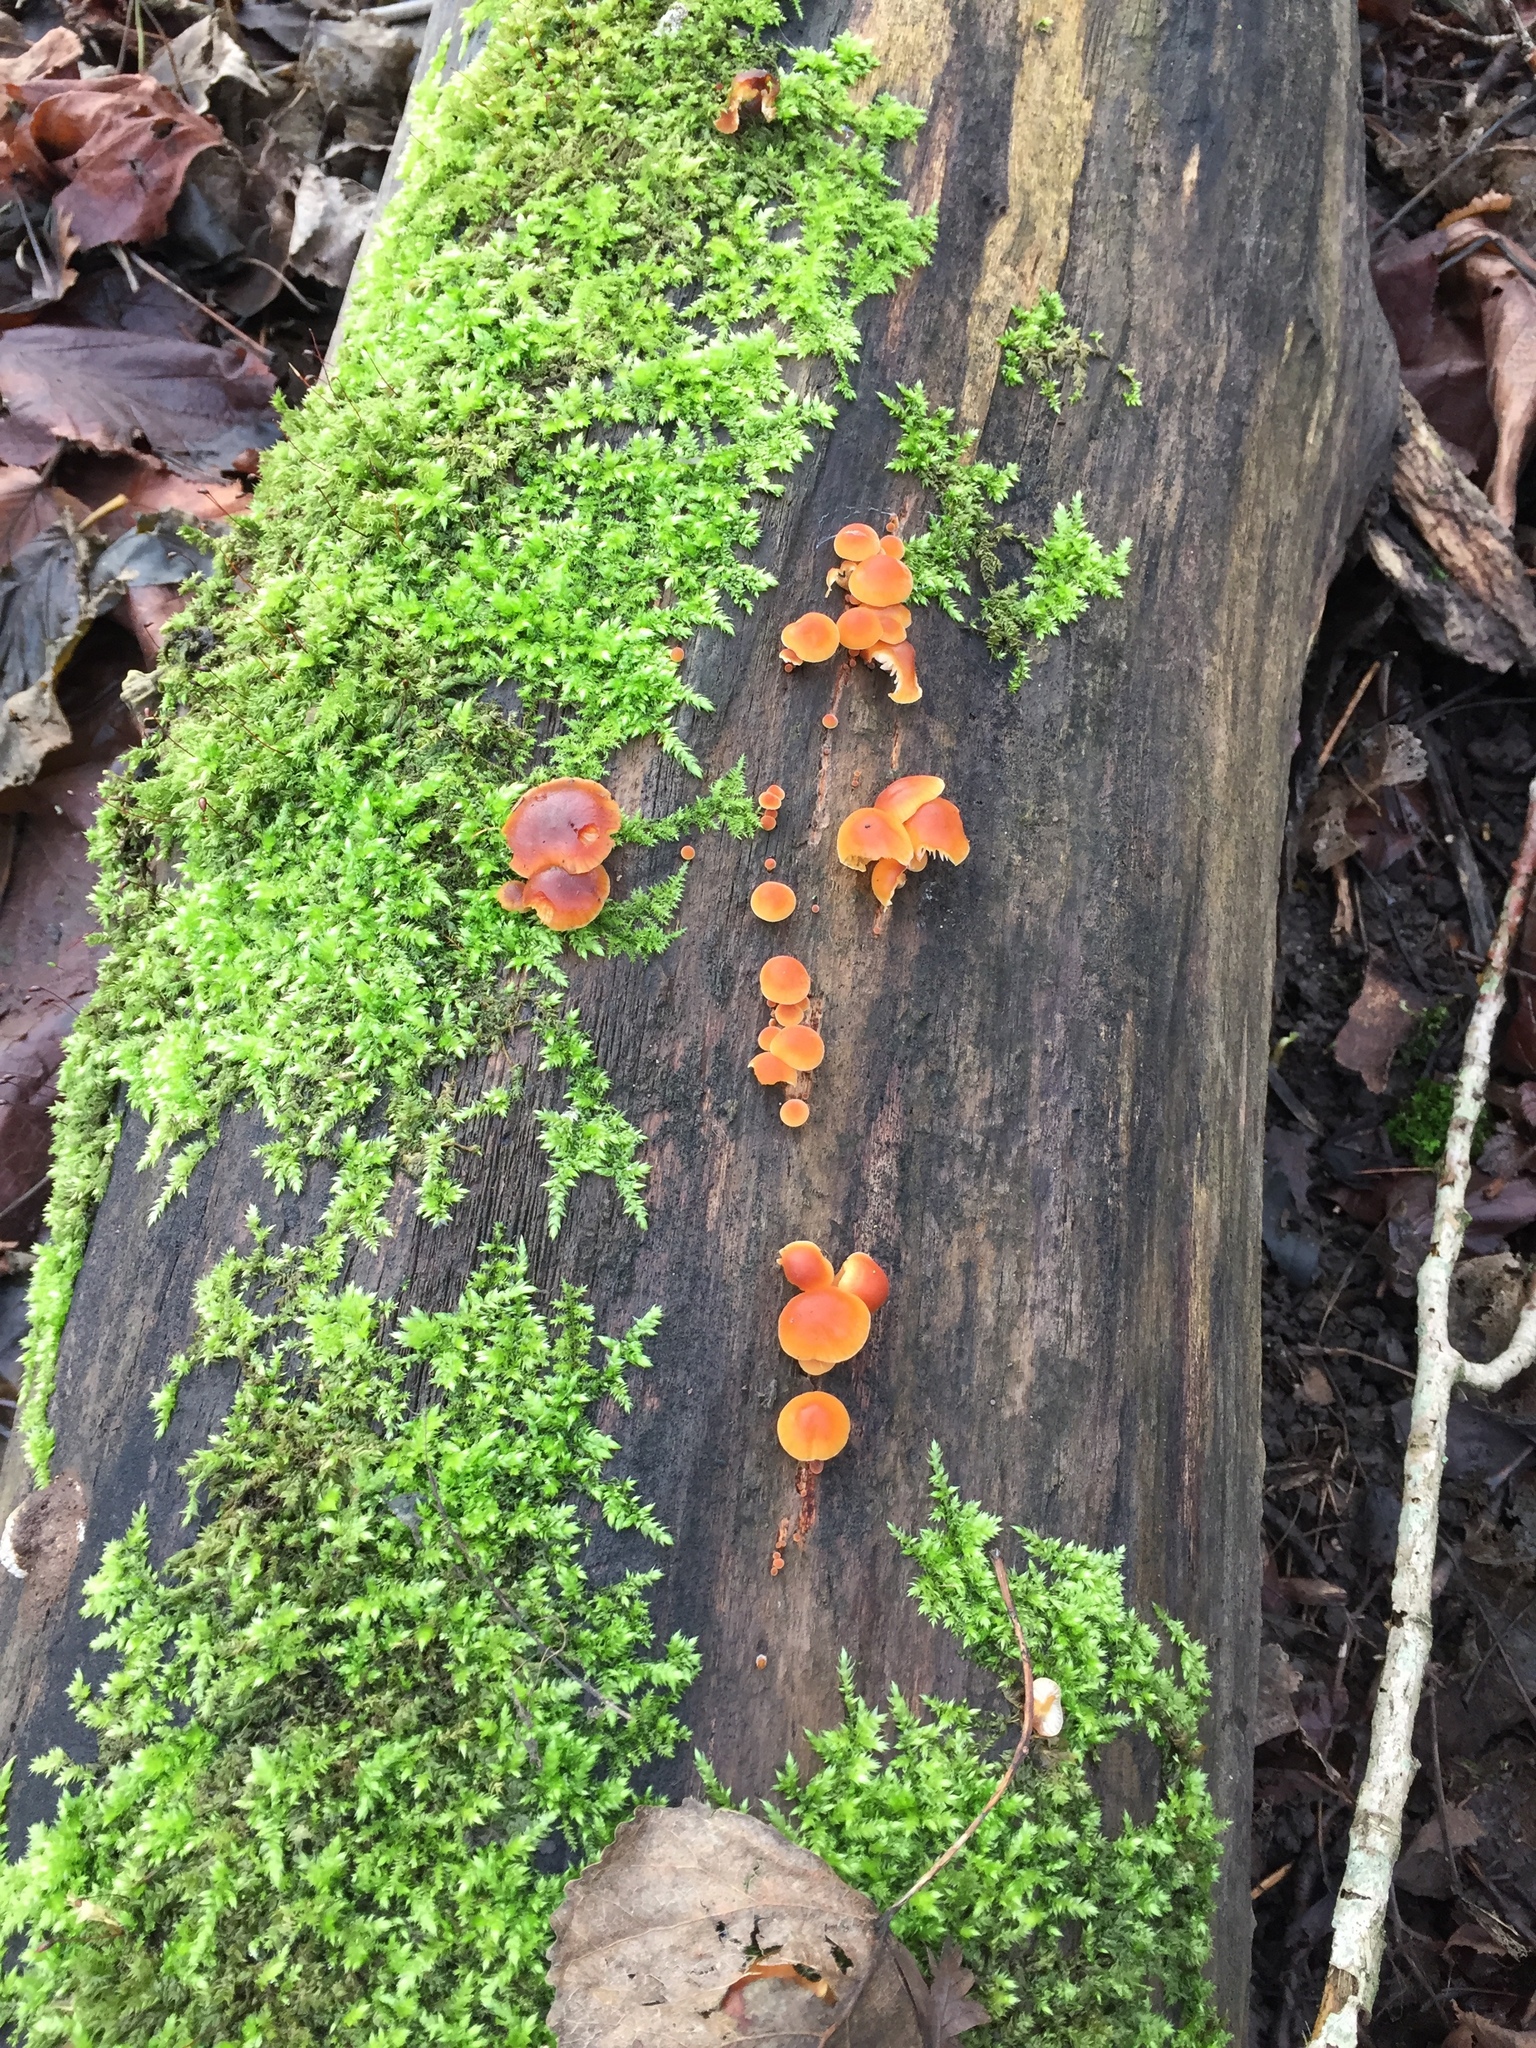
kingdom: Fungi
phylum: Basidiomycota
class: Agaricomycetes
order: Agaricales
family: Physalacriaceae
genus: Flammulina
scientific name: Flammulina
